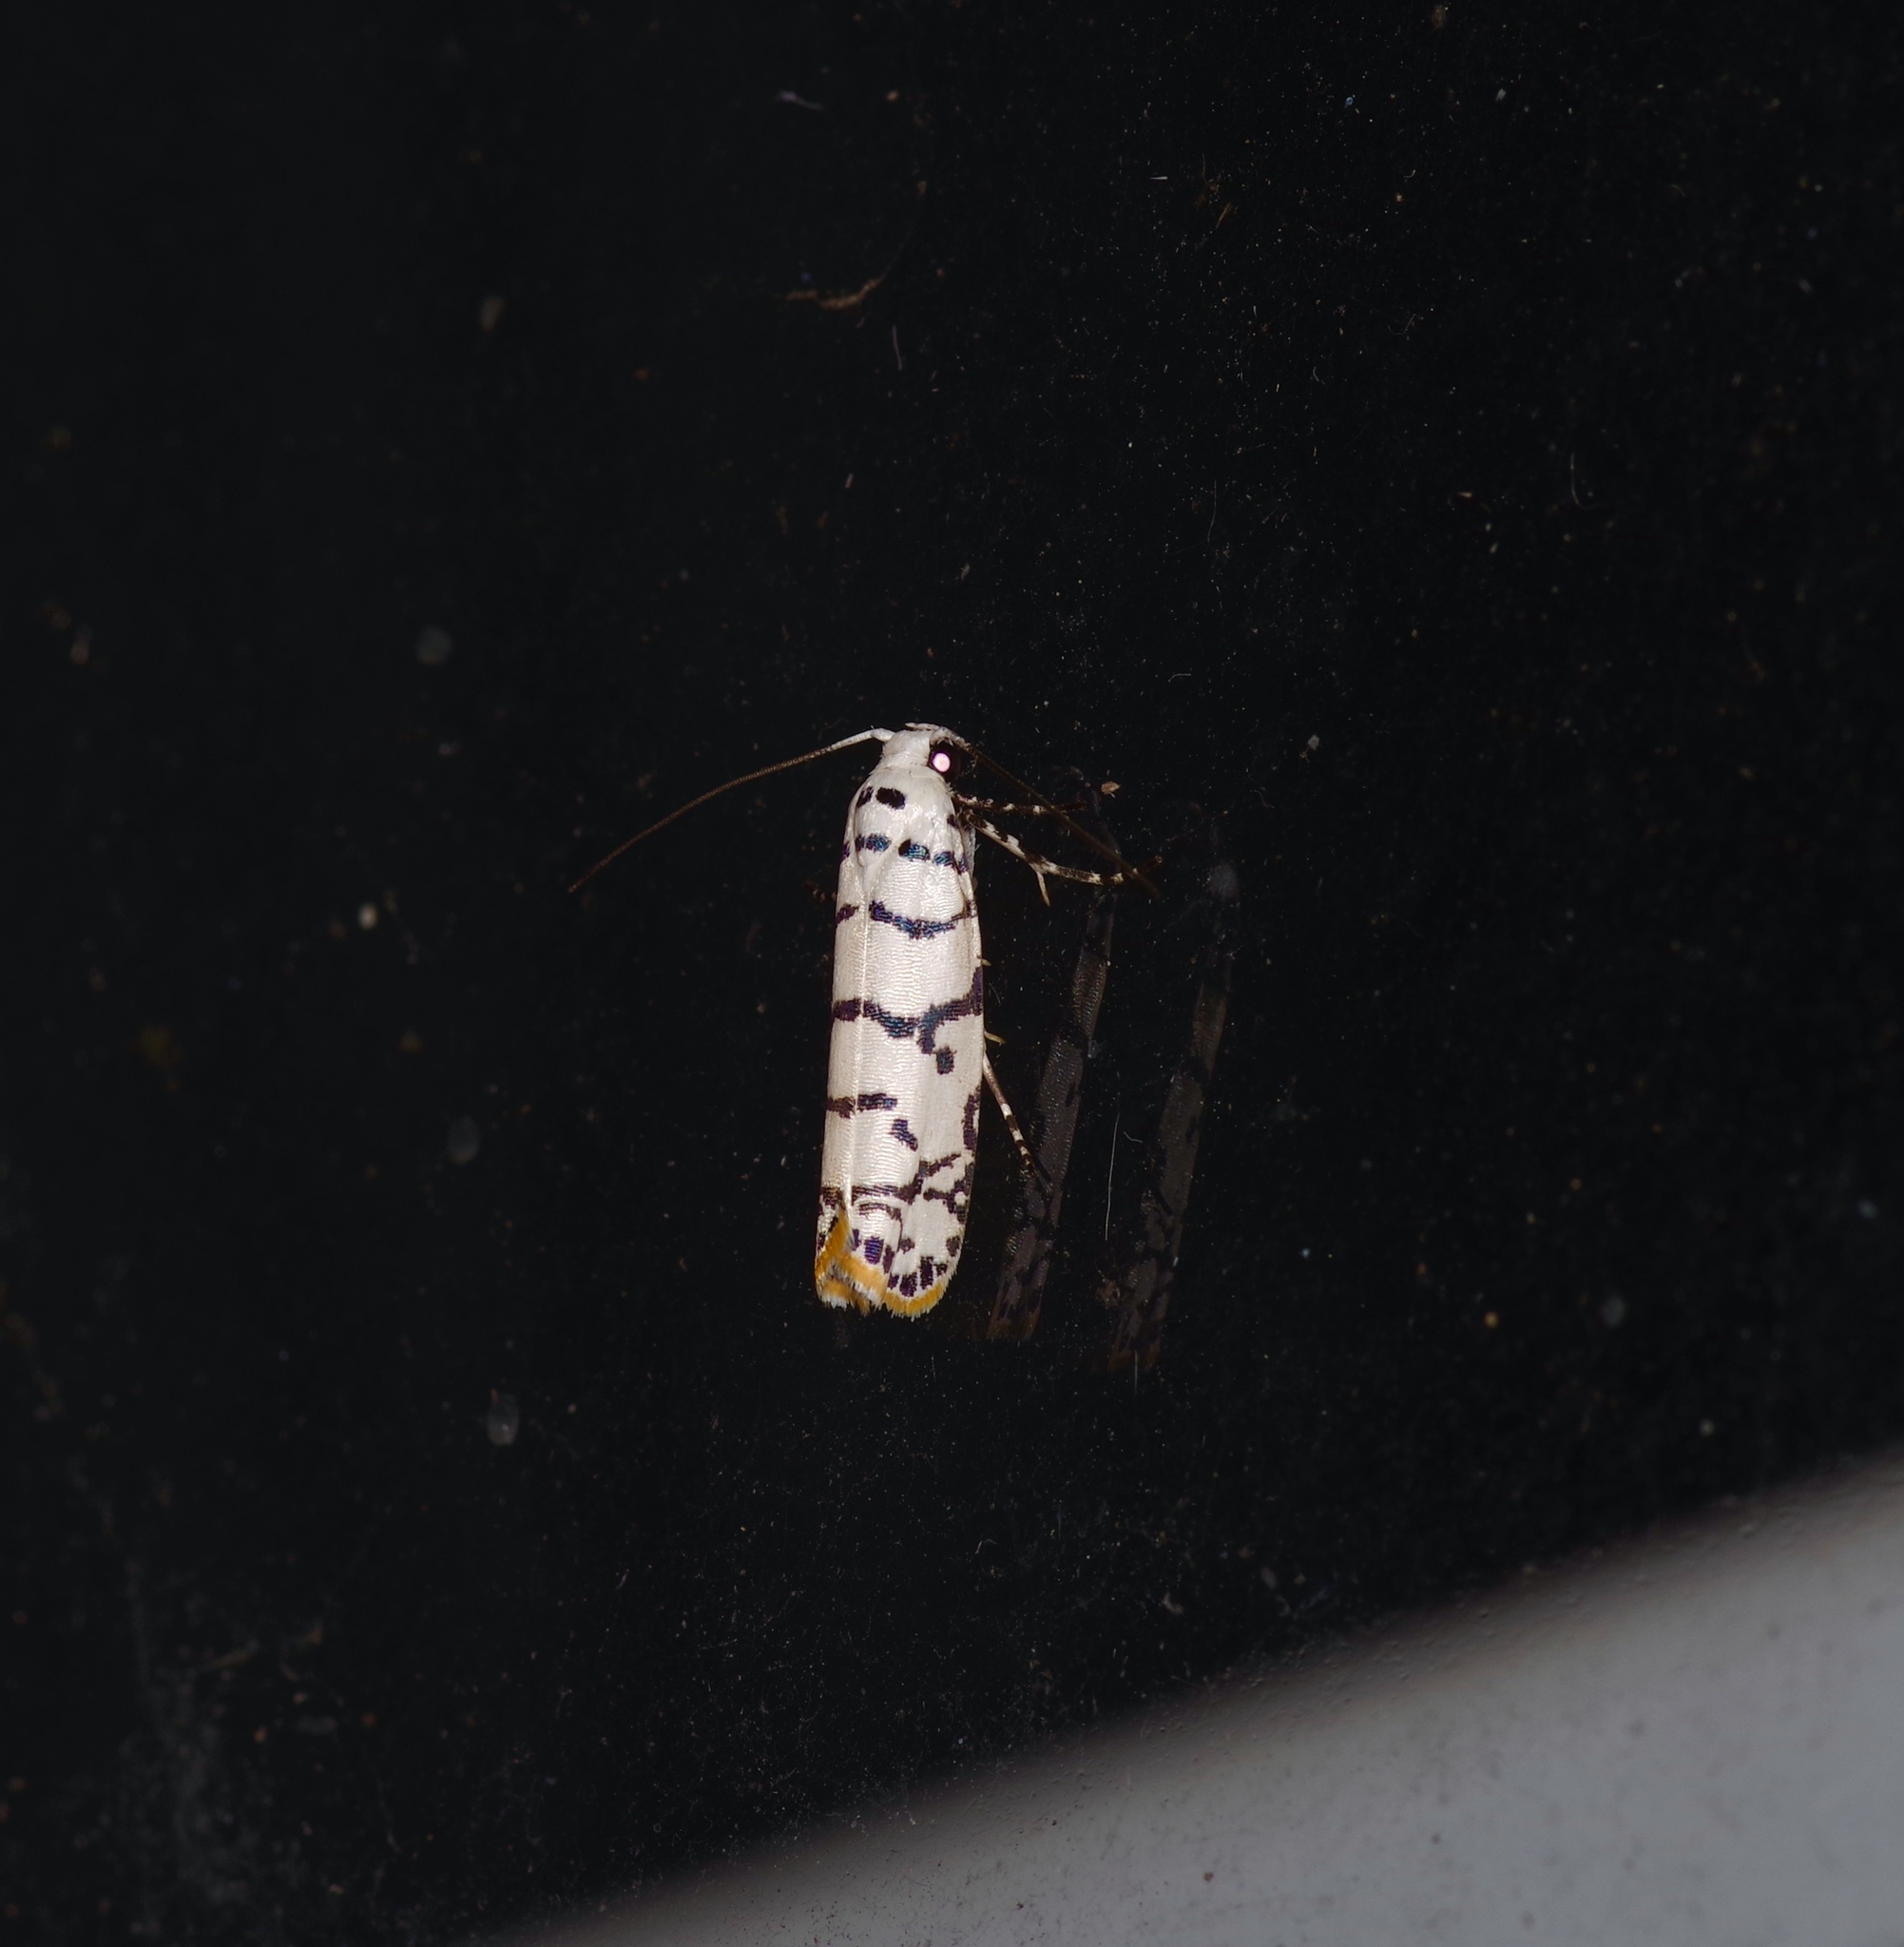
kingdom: Animalia
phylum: Arthropoda
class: Insecta
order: Lepidoptera
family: Ethmiidae
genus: Ethmia
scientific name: Ethmia delliella
